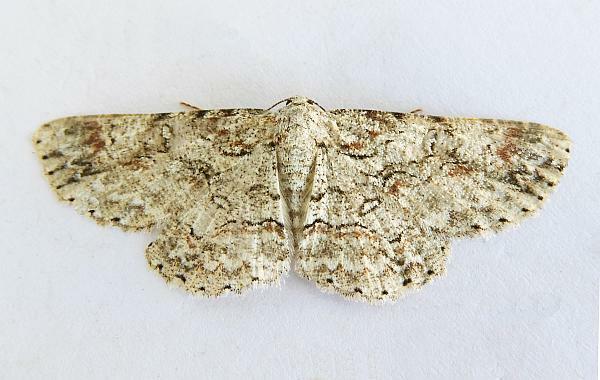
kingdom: Animalia
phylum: Arthropoda
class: Insecta
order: Lepidoptera
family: Geometridae
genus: Iridopsis
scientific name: Iridopsis defectaria
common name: Brown-shaded gray
